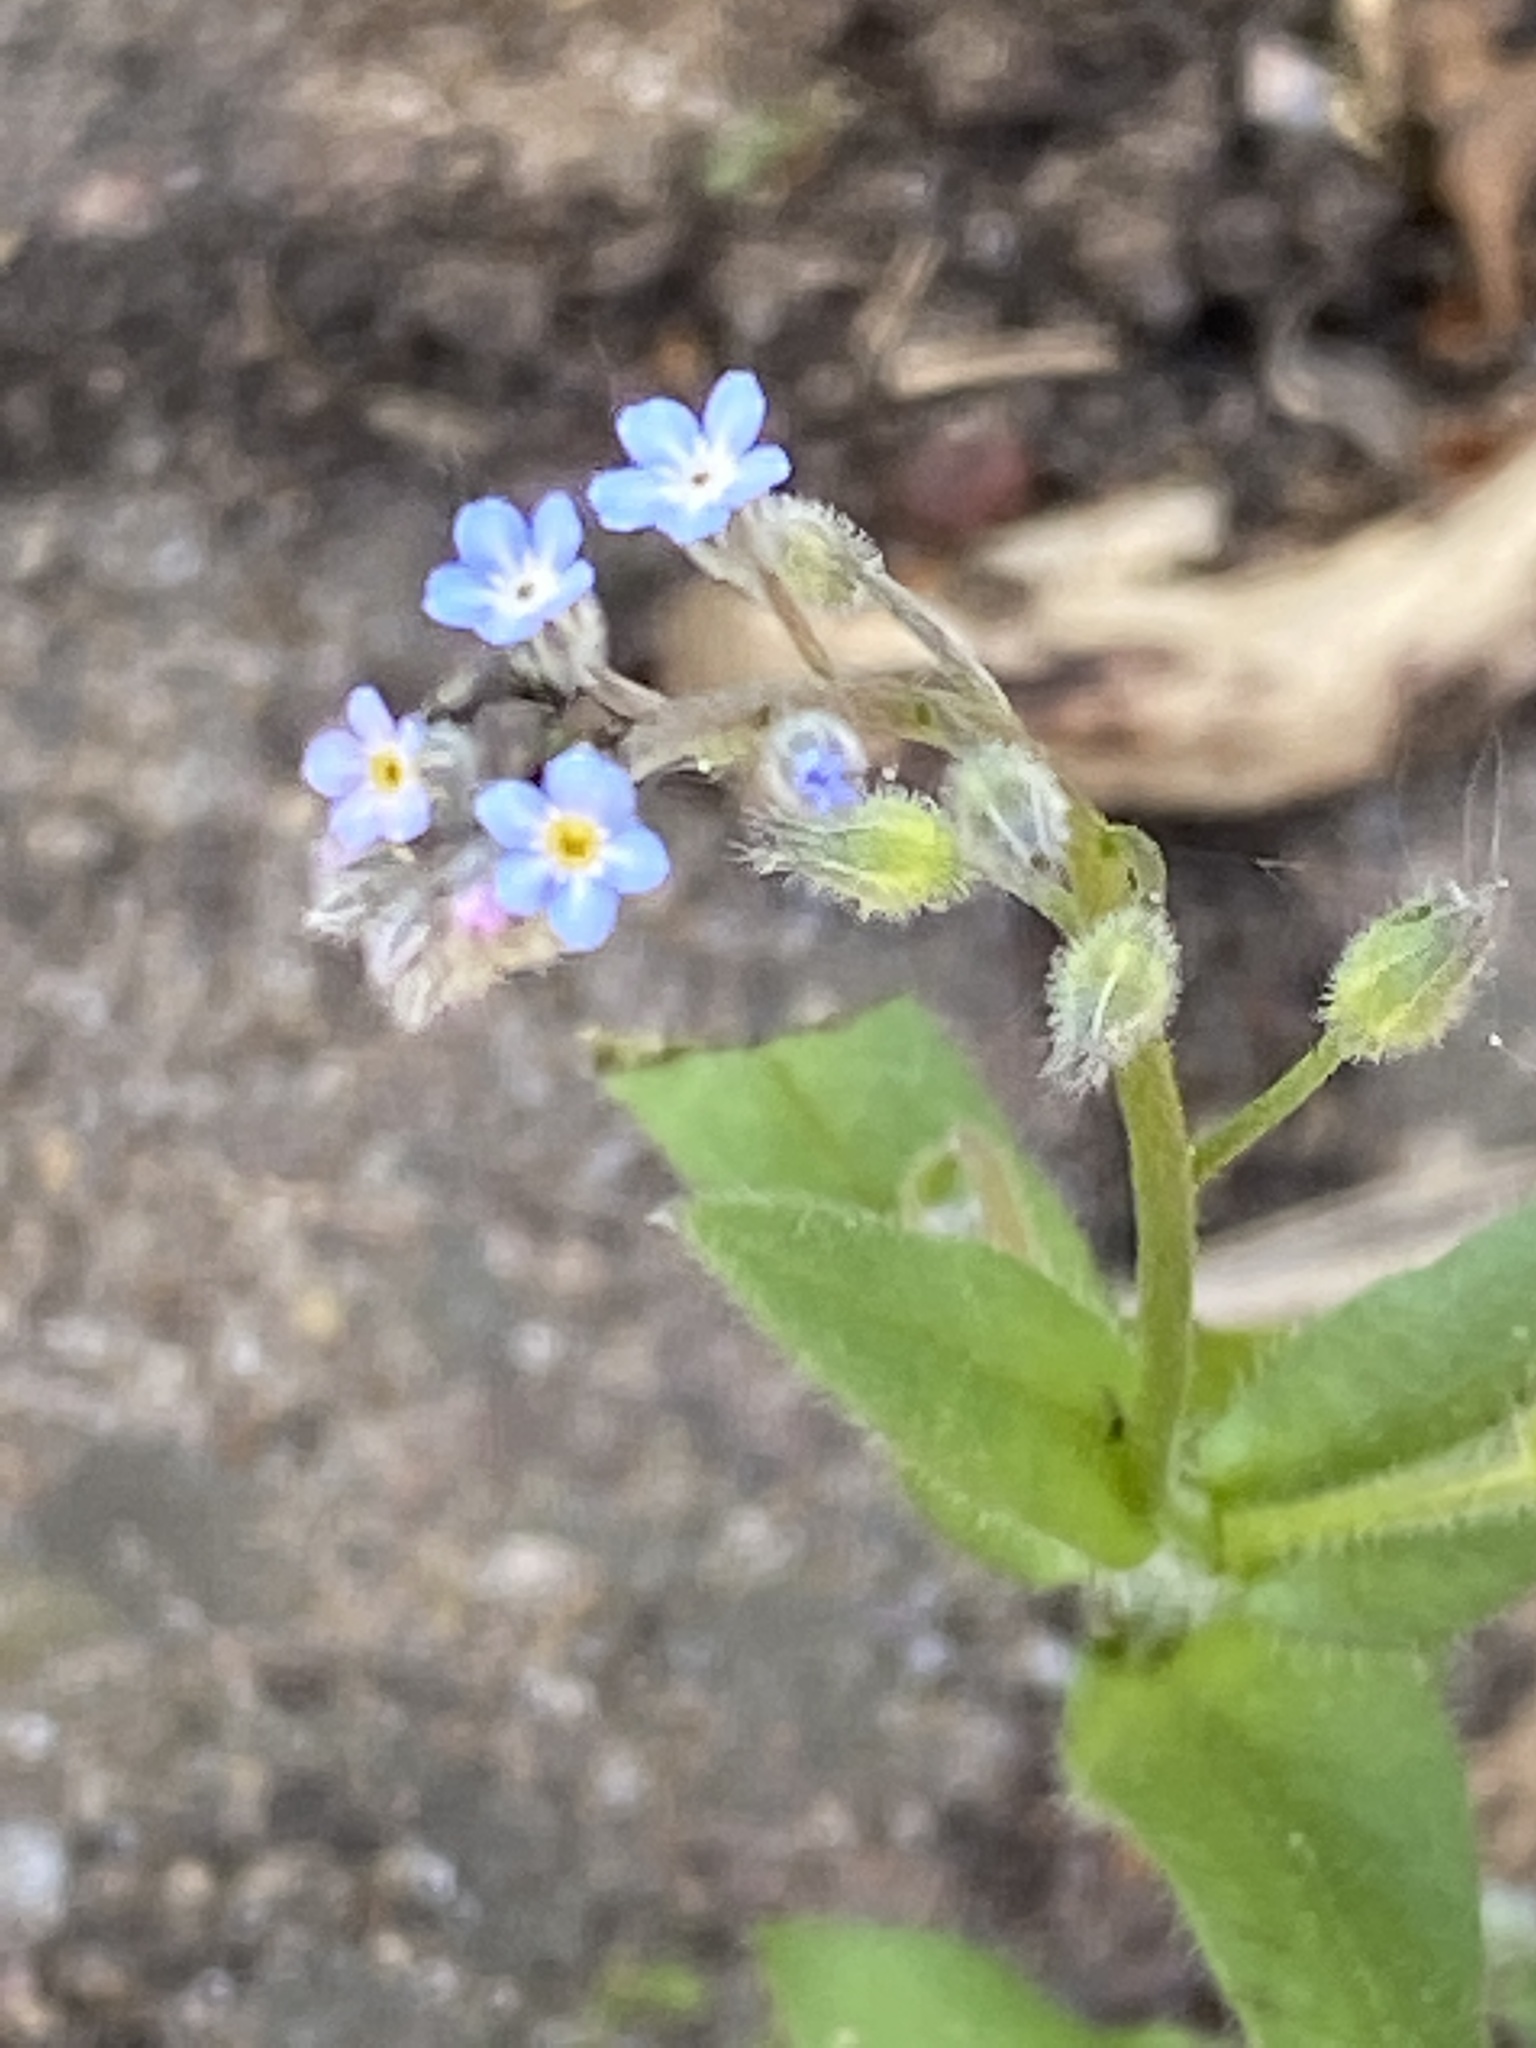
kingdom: Plantae
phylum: Tracheophyta
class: Magnoliopsida
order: Boraginales
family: Boraginaceae
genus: Myosotis
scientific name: Myosotis arvensis
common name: Field forget-me-not
